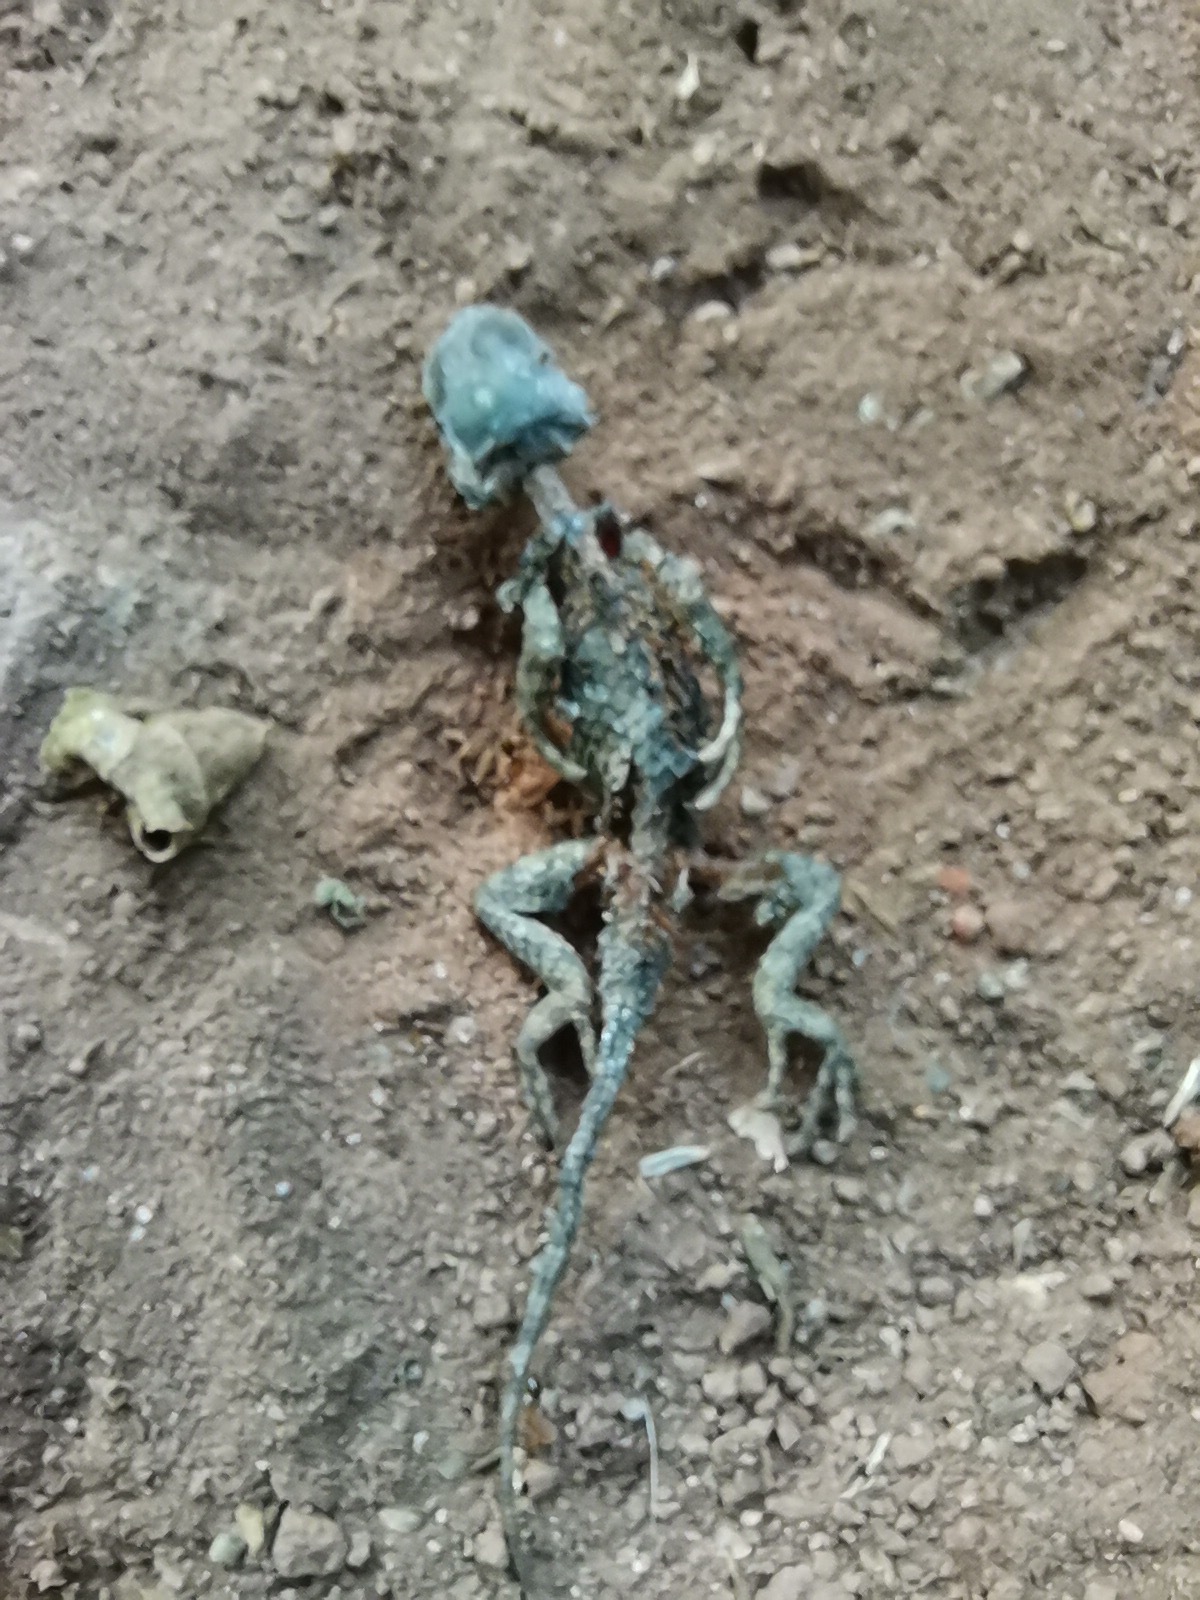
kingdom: Animalia
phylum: Chordata
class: Squamata
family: Phrynosomatidae
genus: Sceloporus
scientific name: Sceloporus torquatus
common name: Central plateau torquate lizard [melanogaster]
